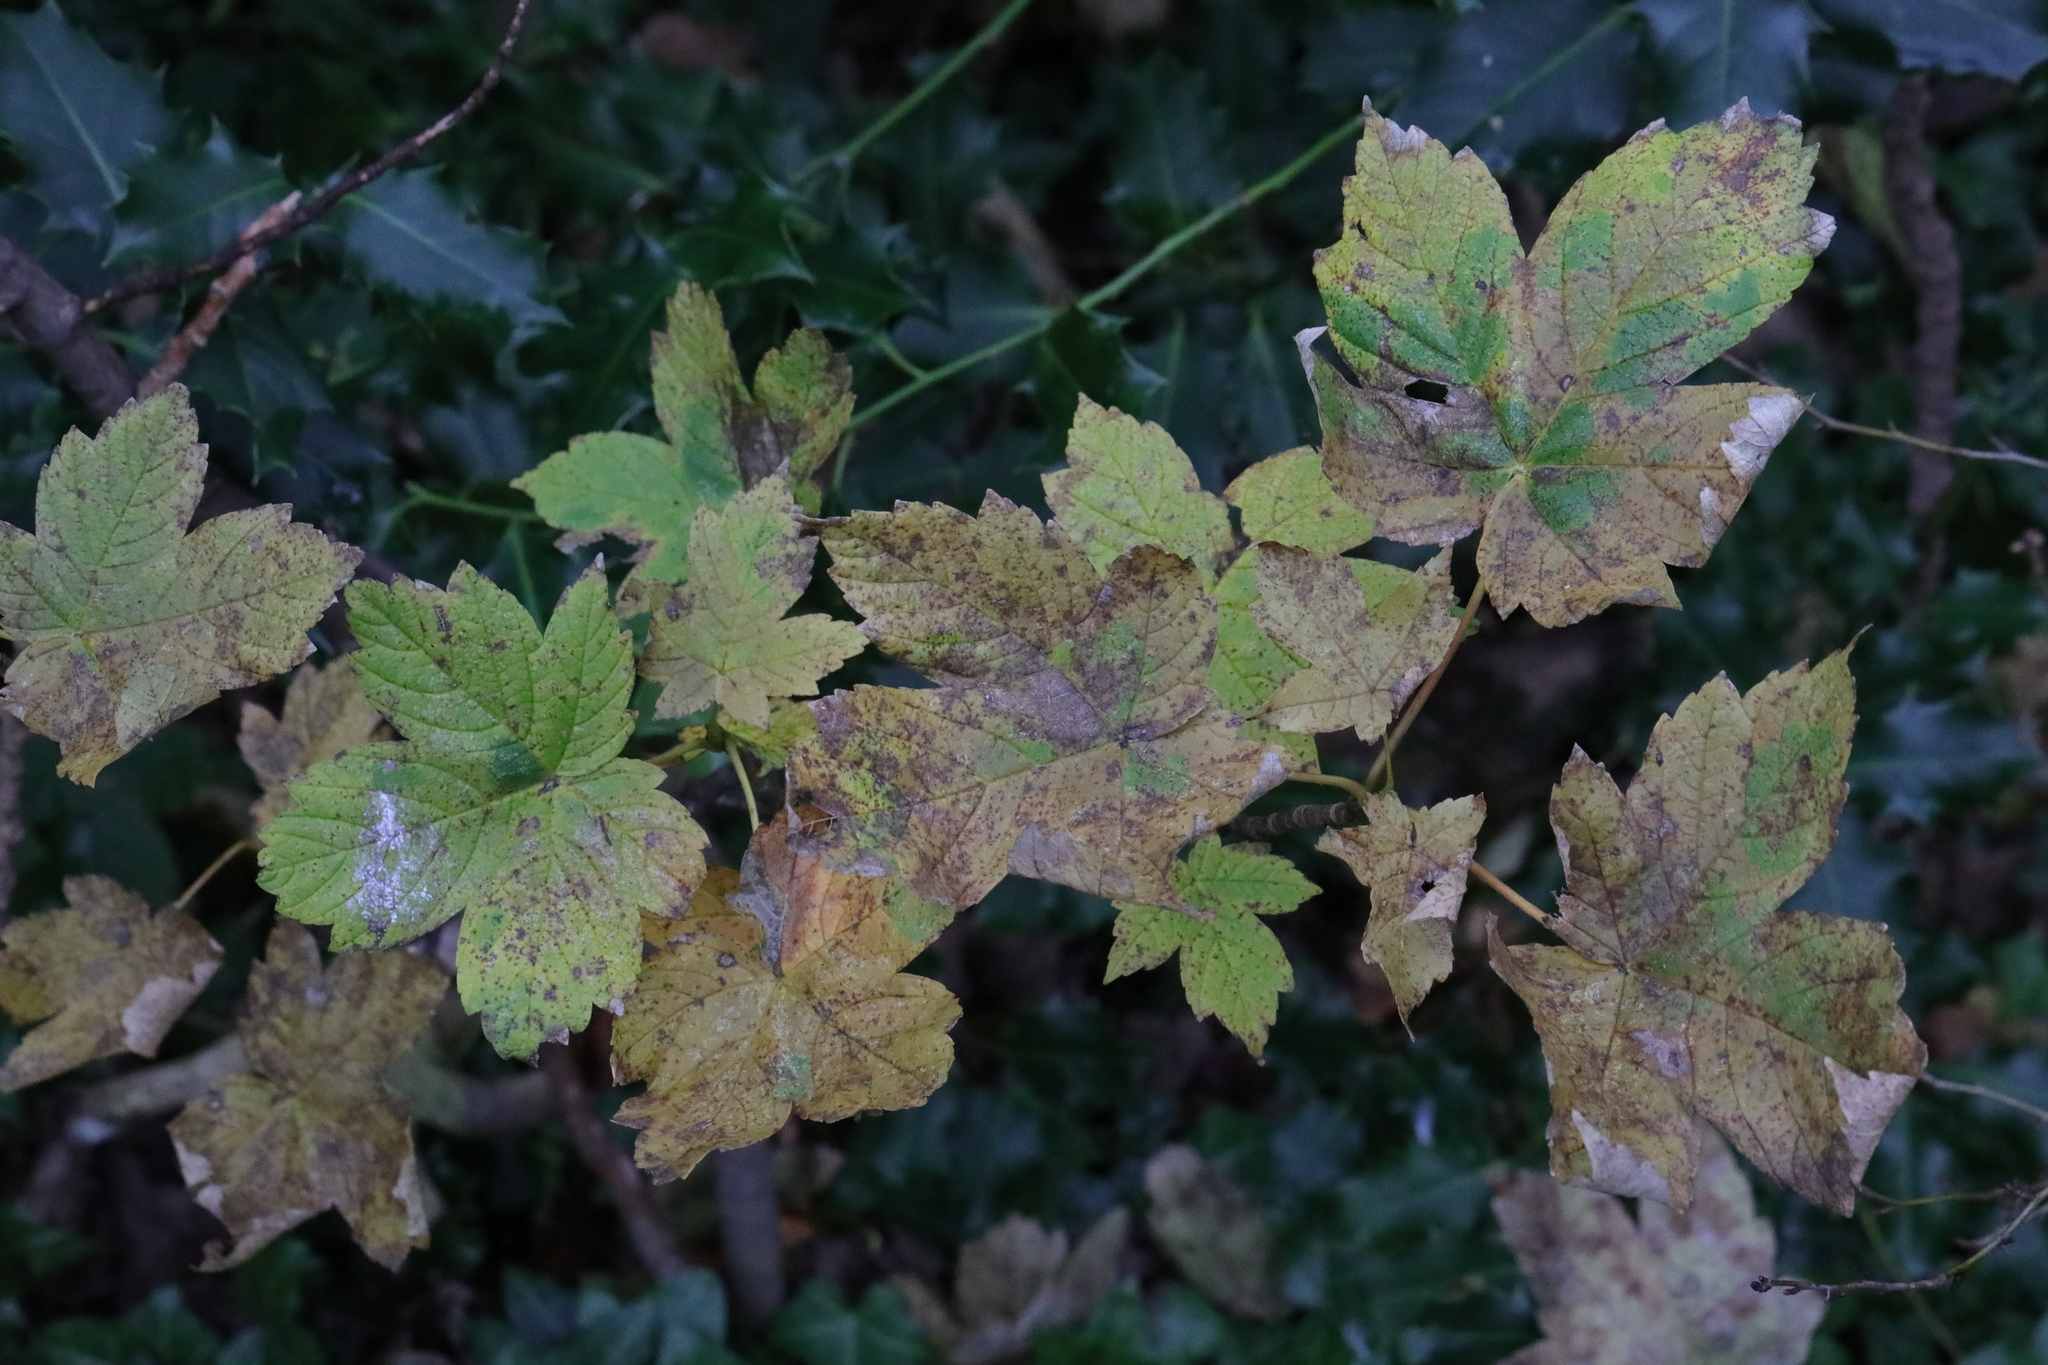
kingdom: Plantae
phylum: Tracheophyta
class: Magnoliopsida
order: Sapindales
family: Sapindaceae
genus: Acer
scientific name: Acer pseudoplatanus
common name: Sycamore
